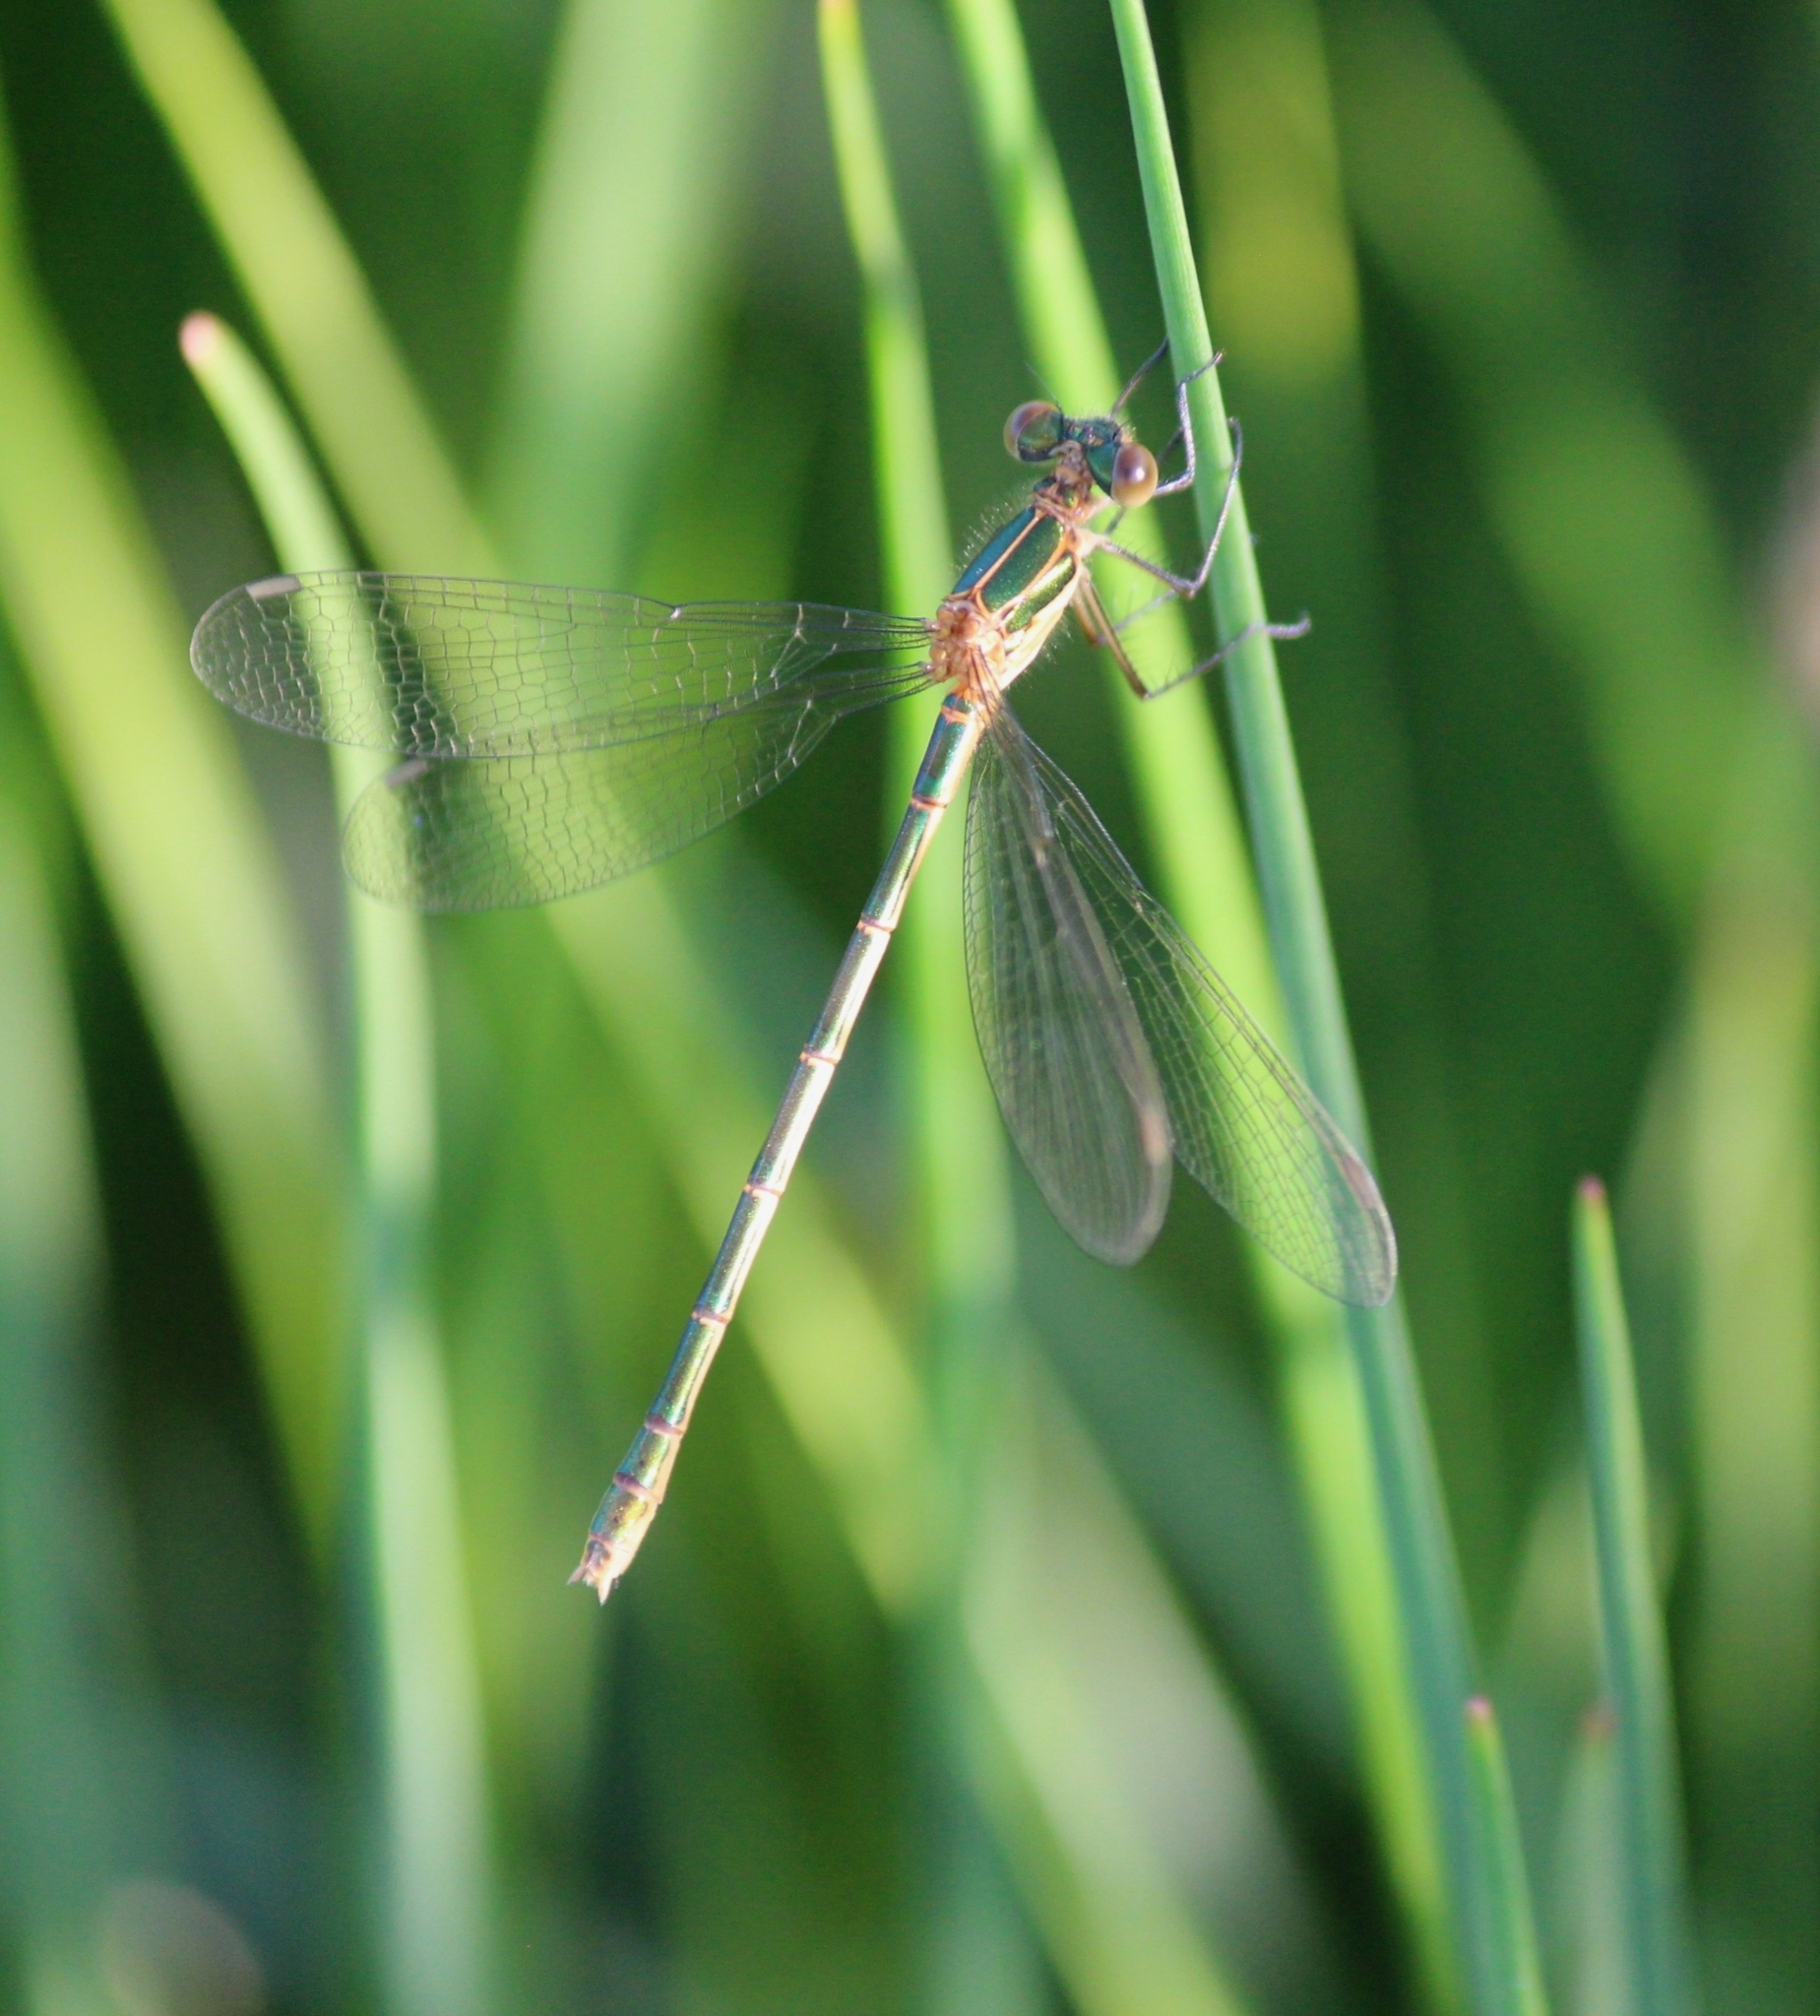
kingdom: Animalia
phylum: Arthropoda
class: Insecta
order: Odonata
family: Lestidae
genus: Lestes
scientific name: Lestes sponsa
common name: Common spreadwing
